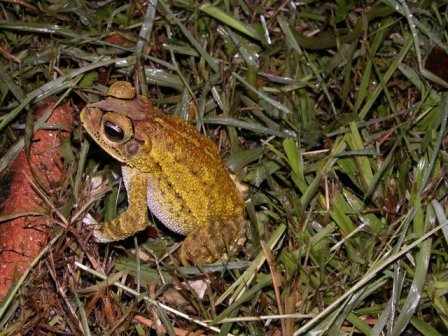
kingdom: Animalia
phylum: Chordata
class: Amphibia
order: Anura
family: Bufonidae
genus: Incilius
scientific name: Incilius luetkenii
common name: Yellow toad
